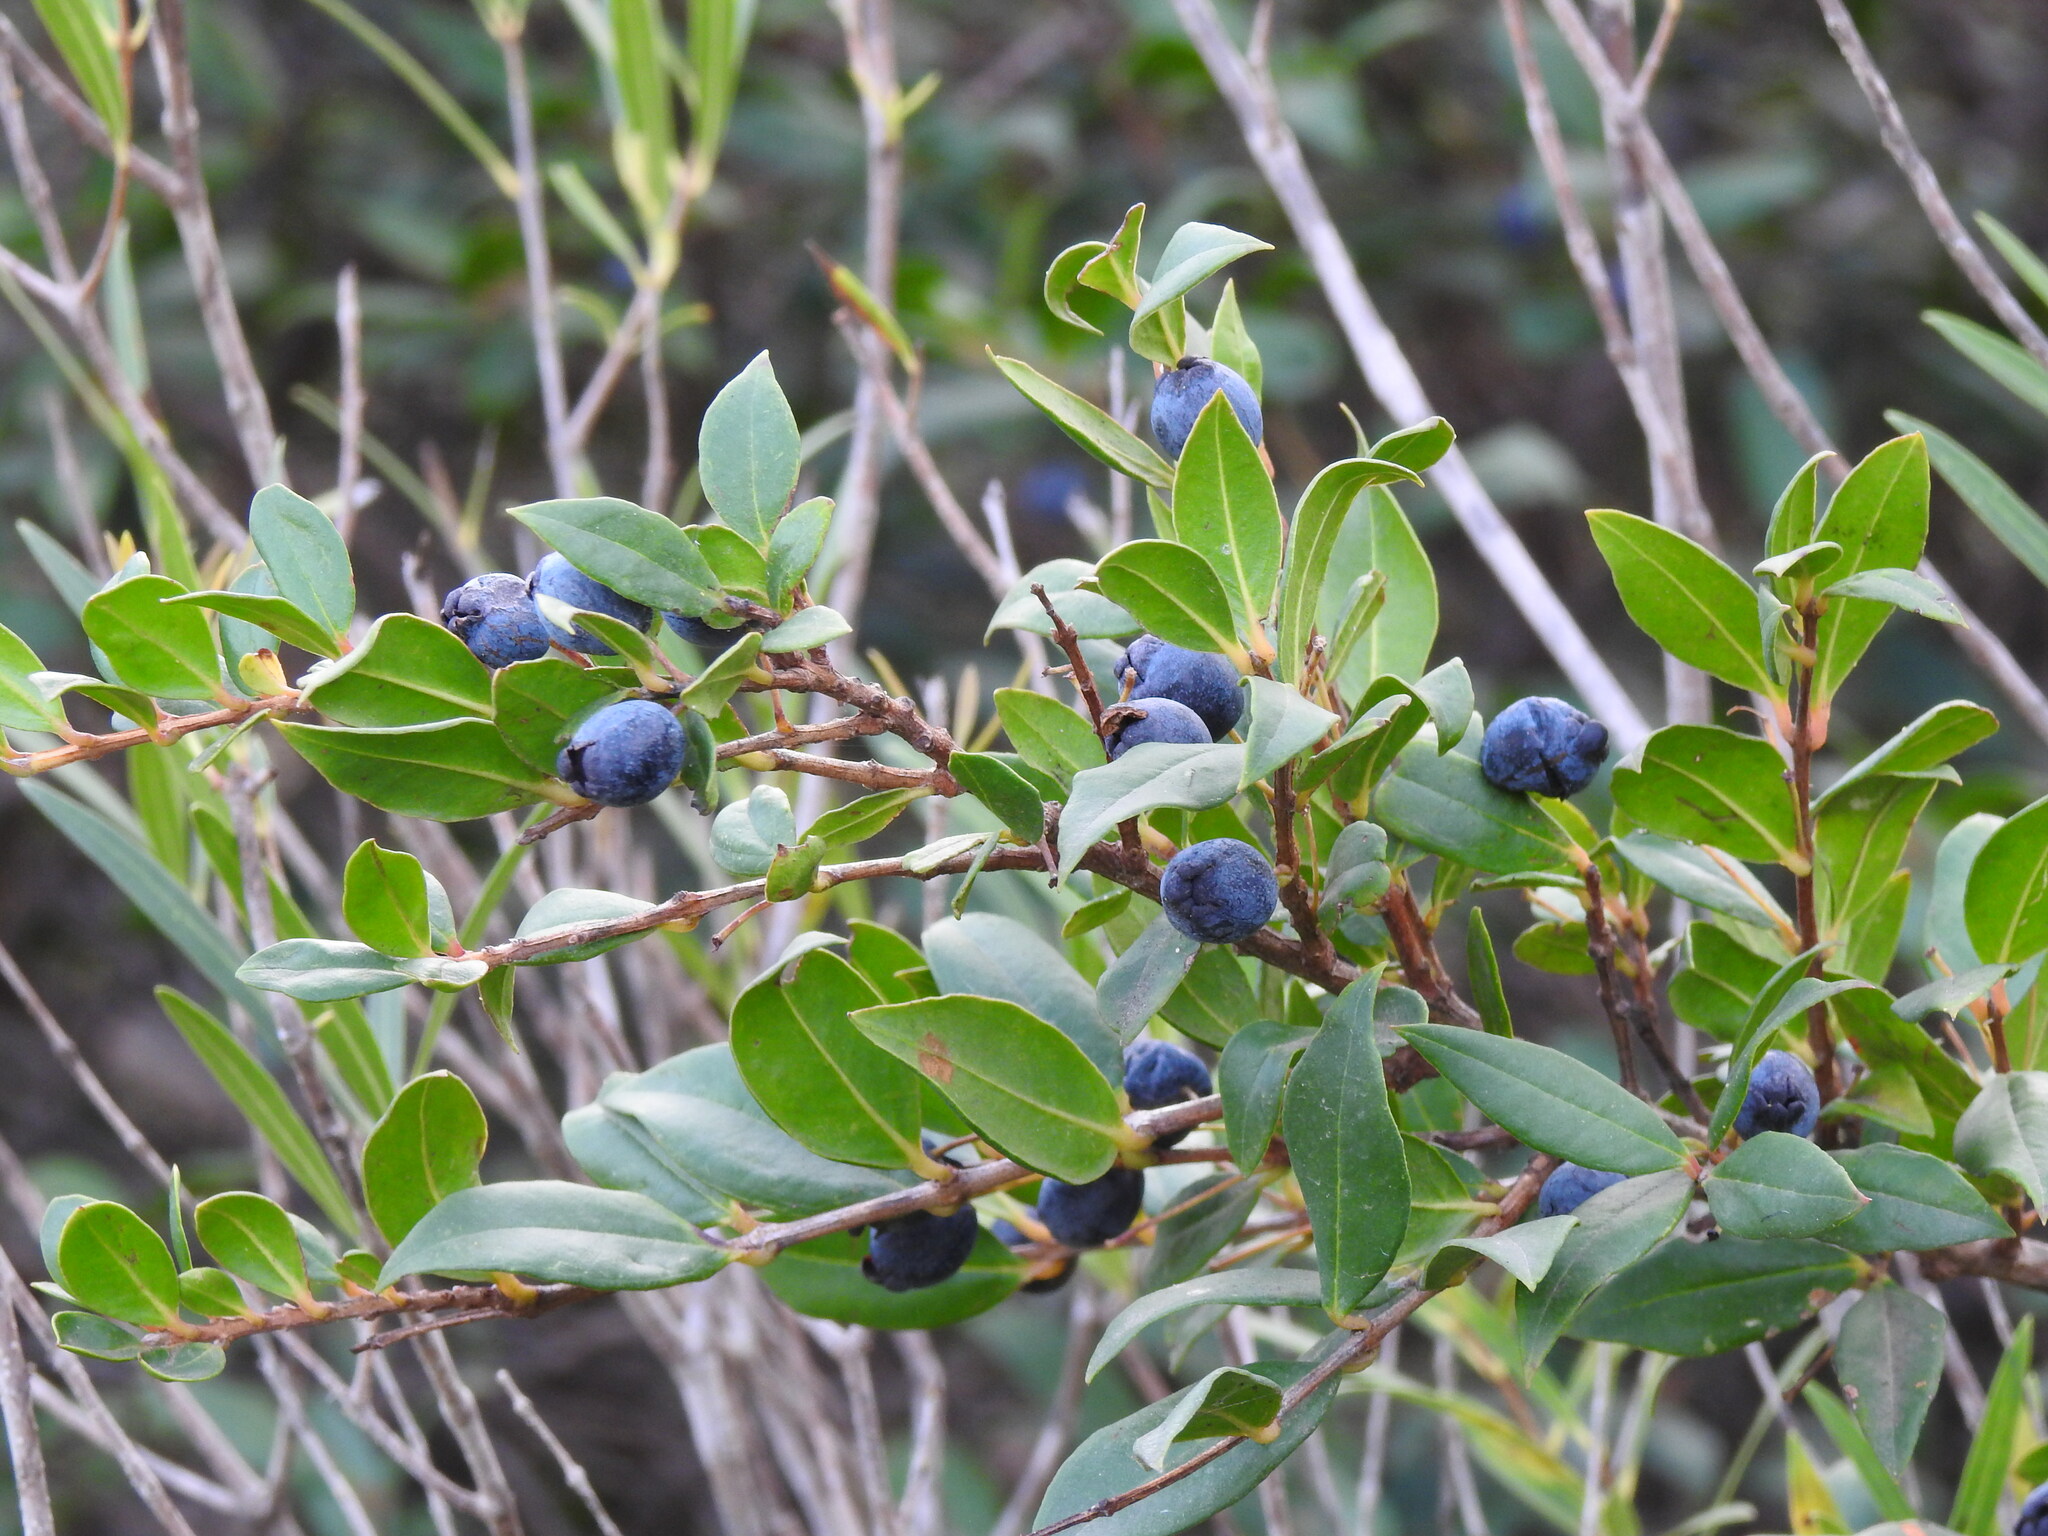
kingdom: Plantae
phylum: Tracheophyta
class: Magnoliopsida
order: Myrtales
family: Myrtaceae
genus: Myrtus
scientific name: Myrtus communis
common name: Myrtle
